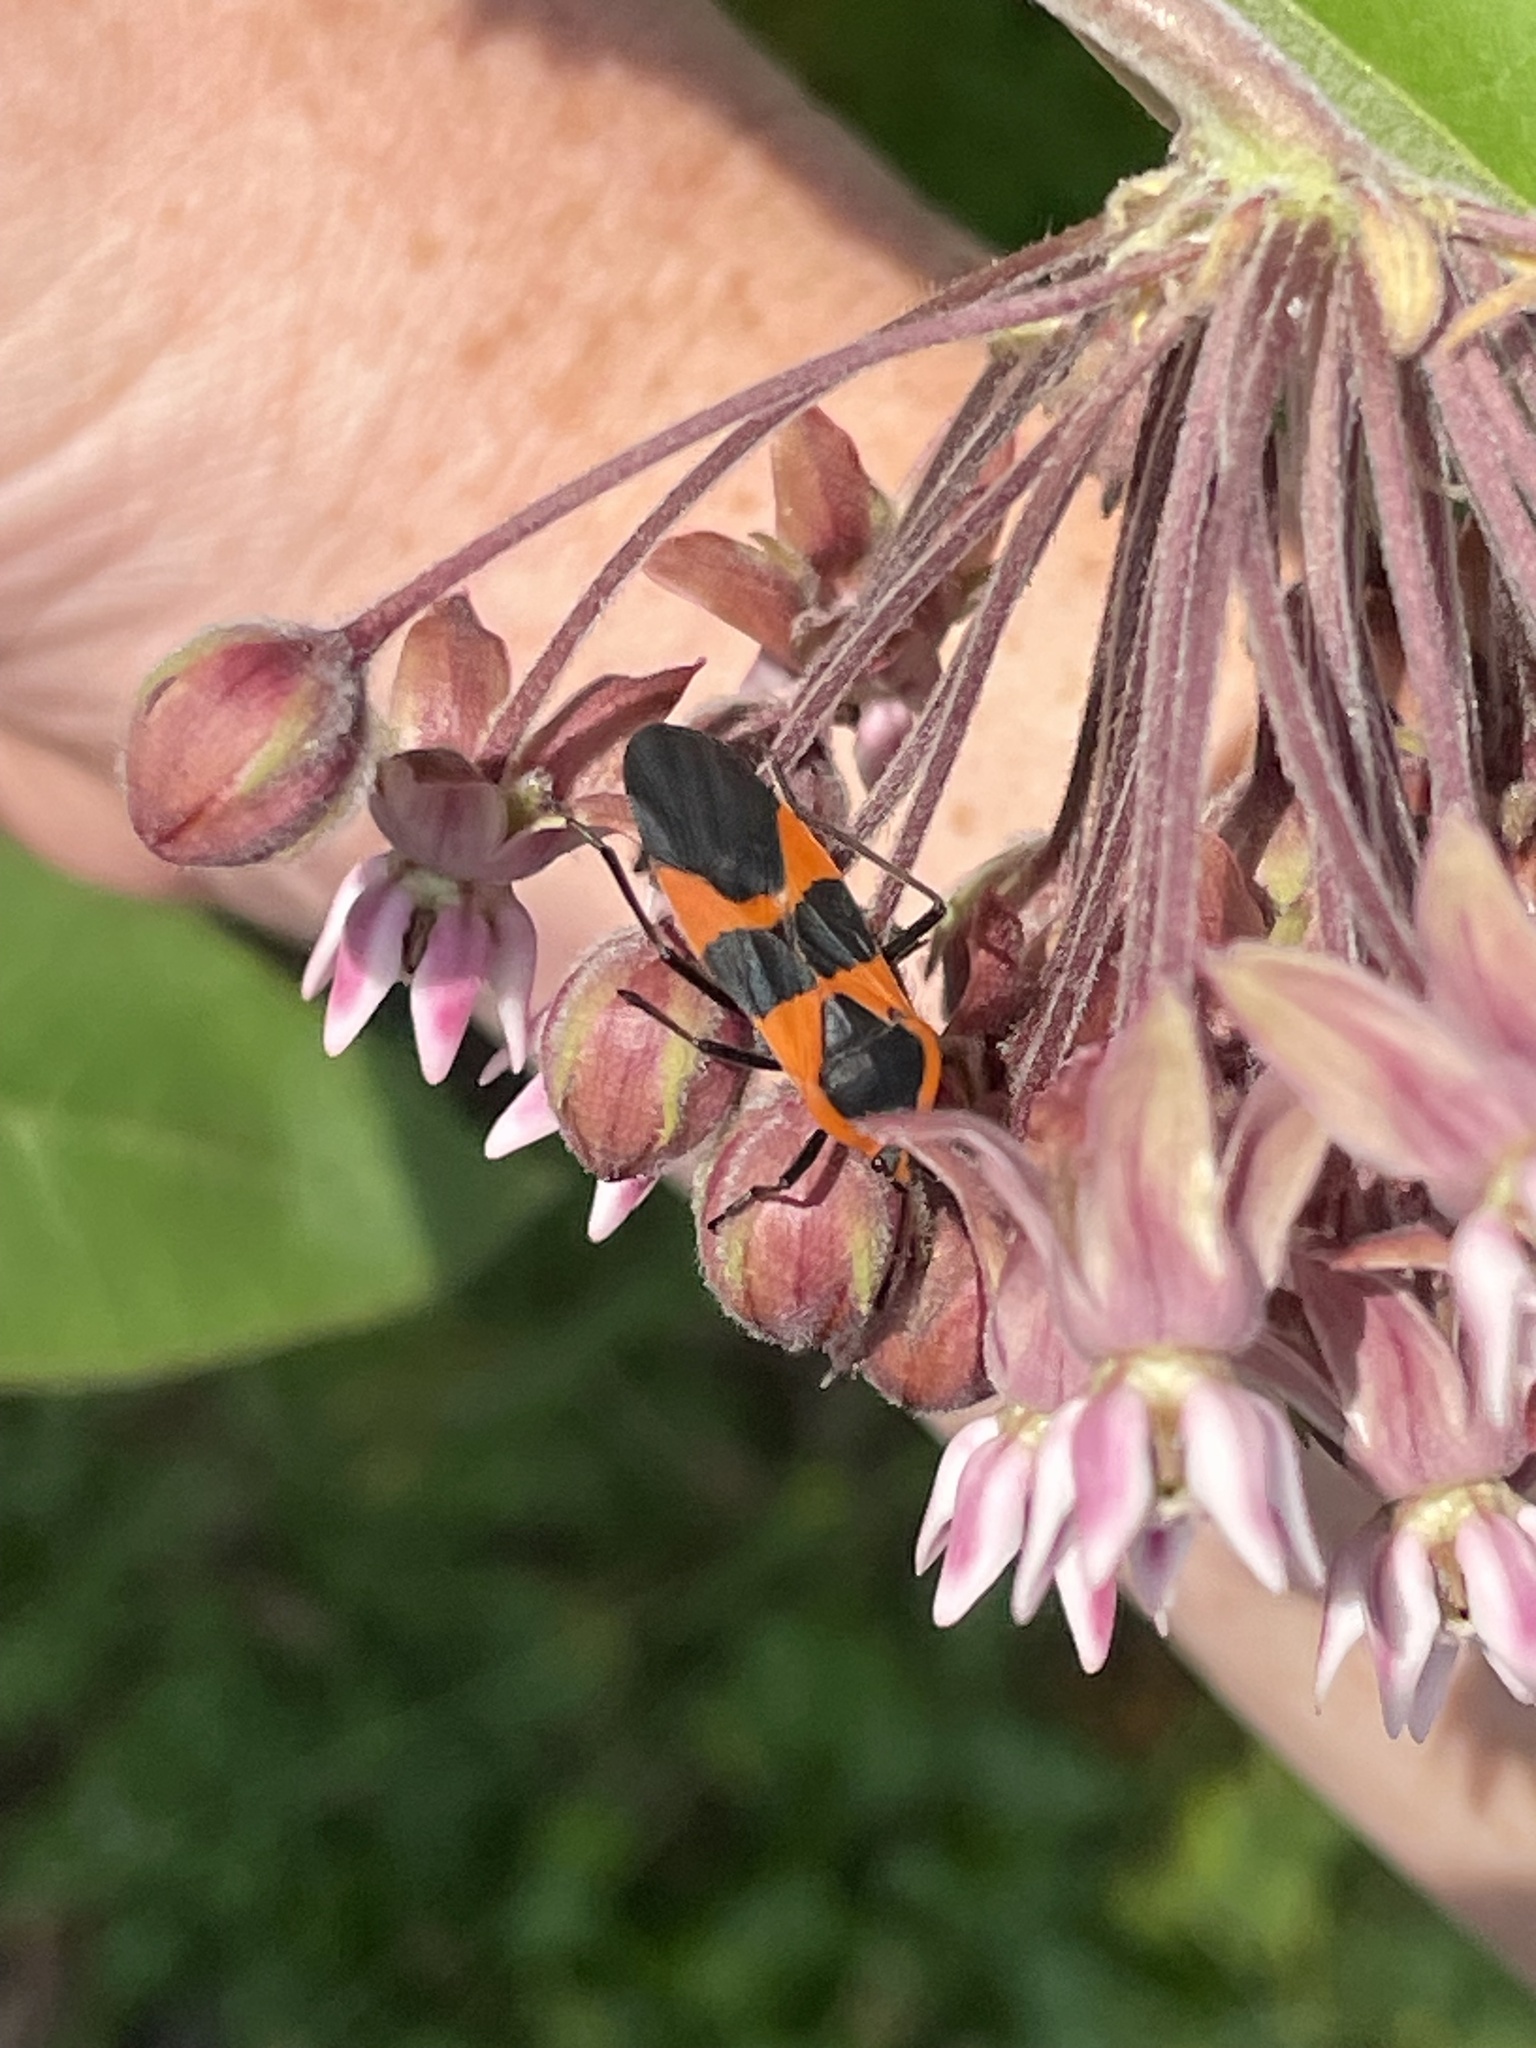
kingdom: Animalia
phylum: Arthropoda
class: Insecta
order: Hemiptera
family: Lygaeidae
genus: Oncopeltus
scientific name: Oncopeltus fasciatus
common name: Large milkweed bug
